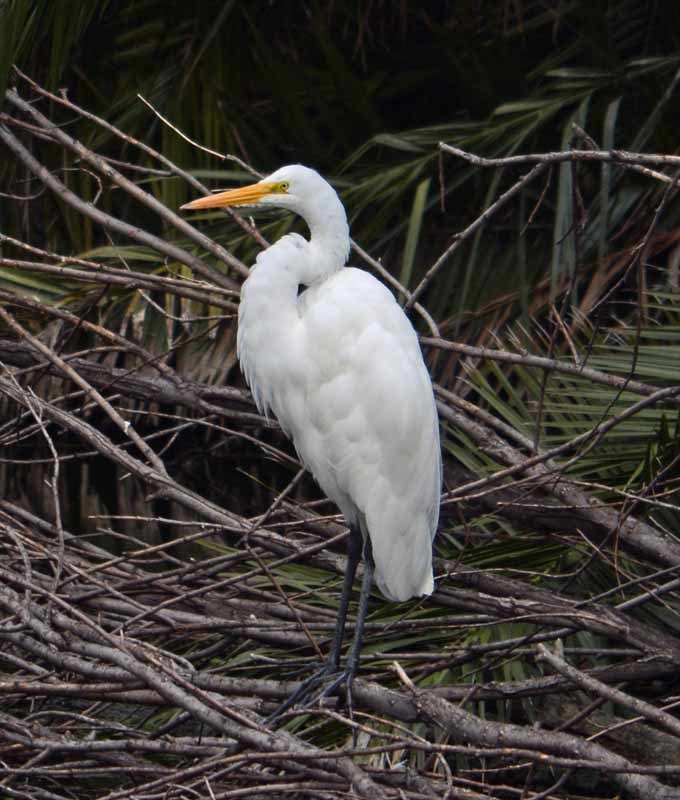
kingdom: Animalia
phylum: Chordata
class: Aves
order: Pelecaniformes
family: Ardeidae
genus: Ardea
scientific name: Ardea alba
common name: Great egret
